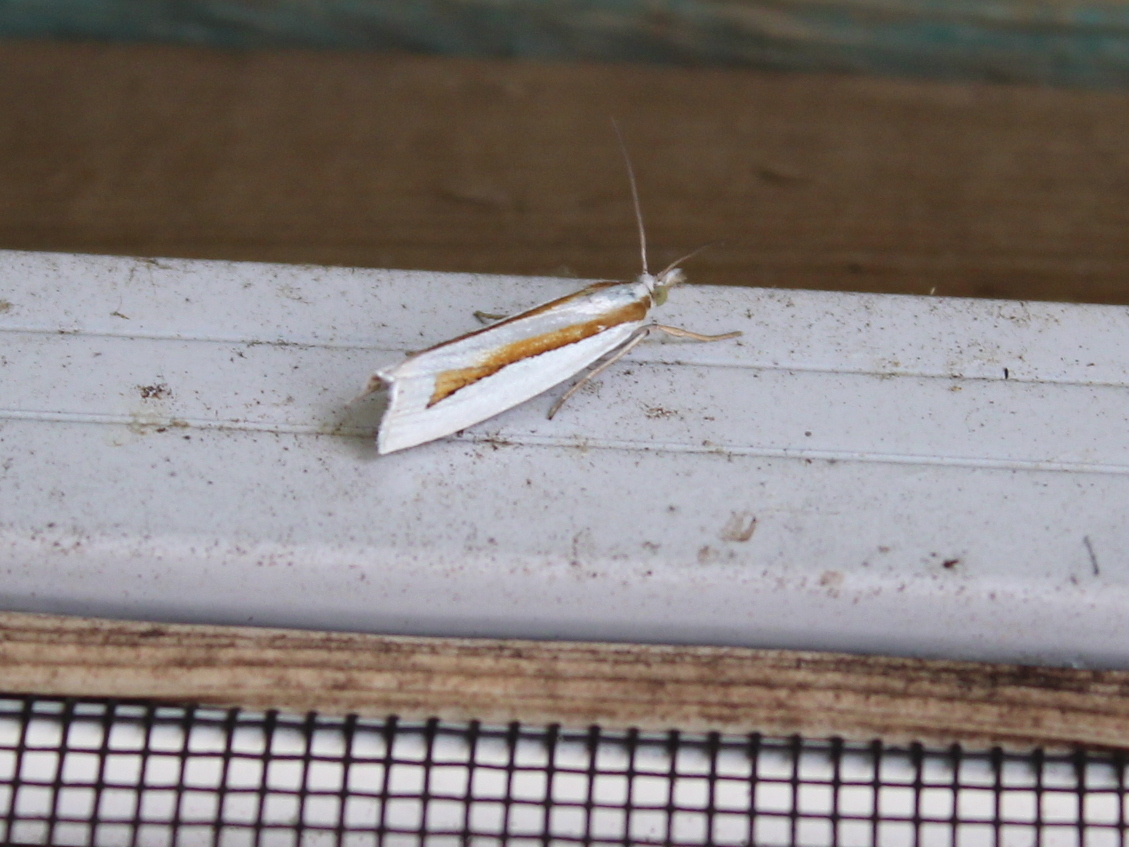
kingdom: Animalia
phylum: Arthropoda
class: Insecta
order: Lepidoptera
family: Crambidae
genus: Crambus
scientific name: Crambus girardellus
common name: Girard's grass-veneer
